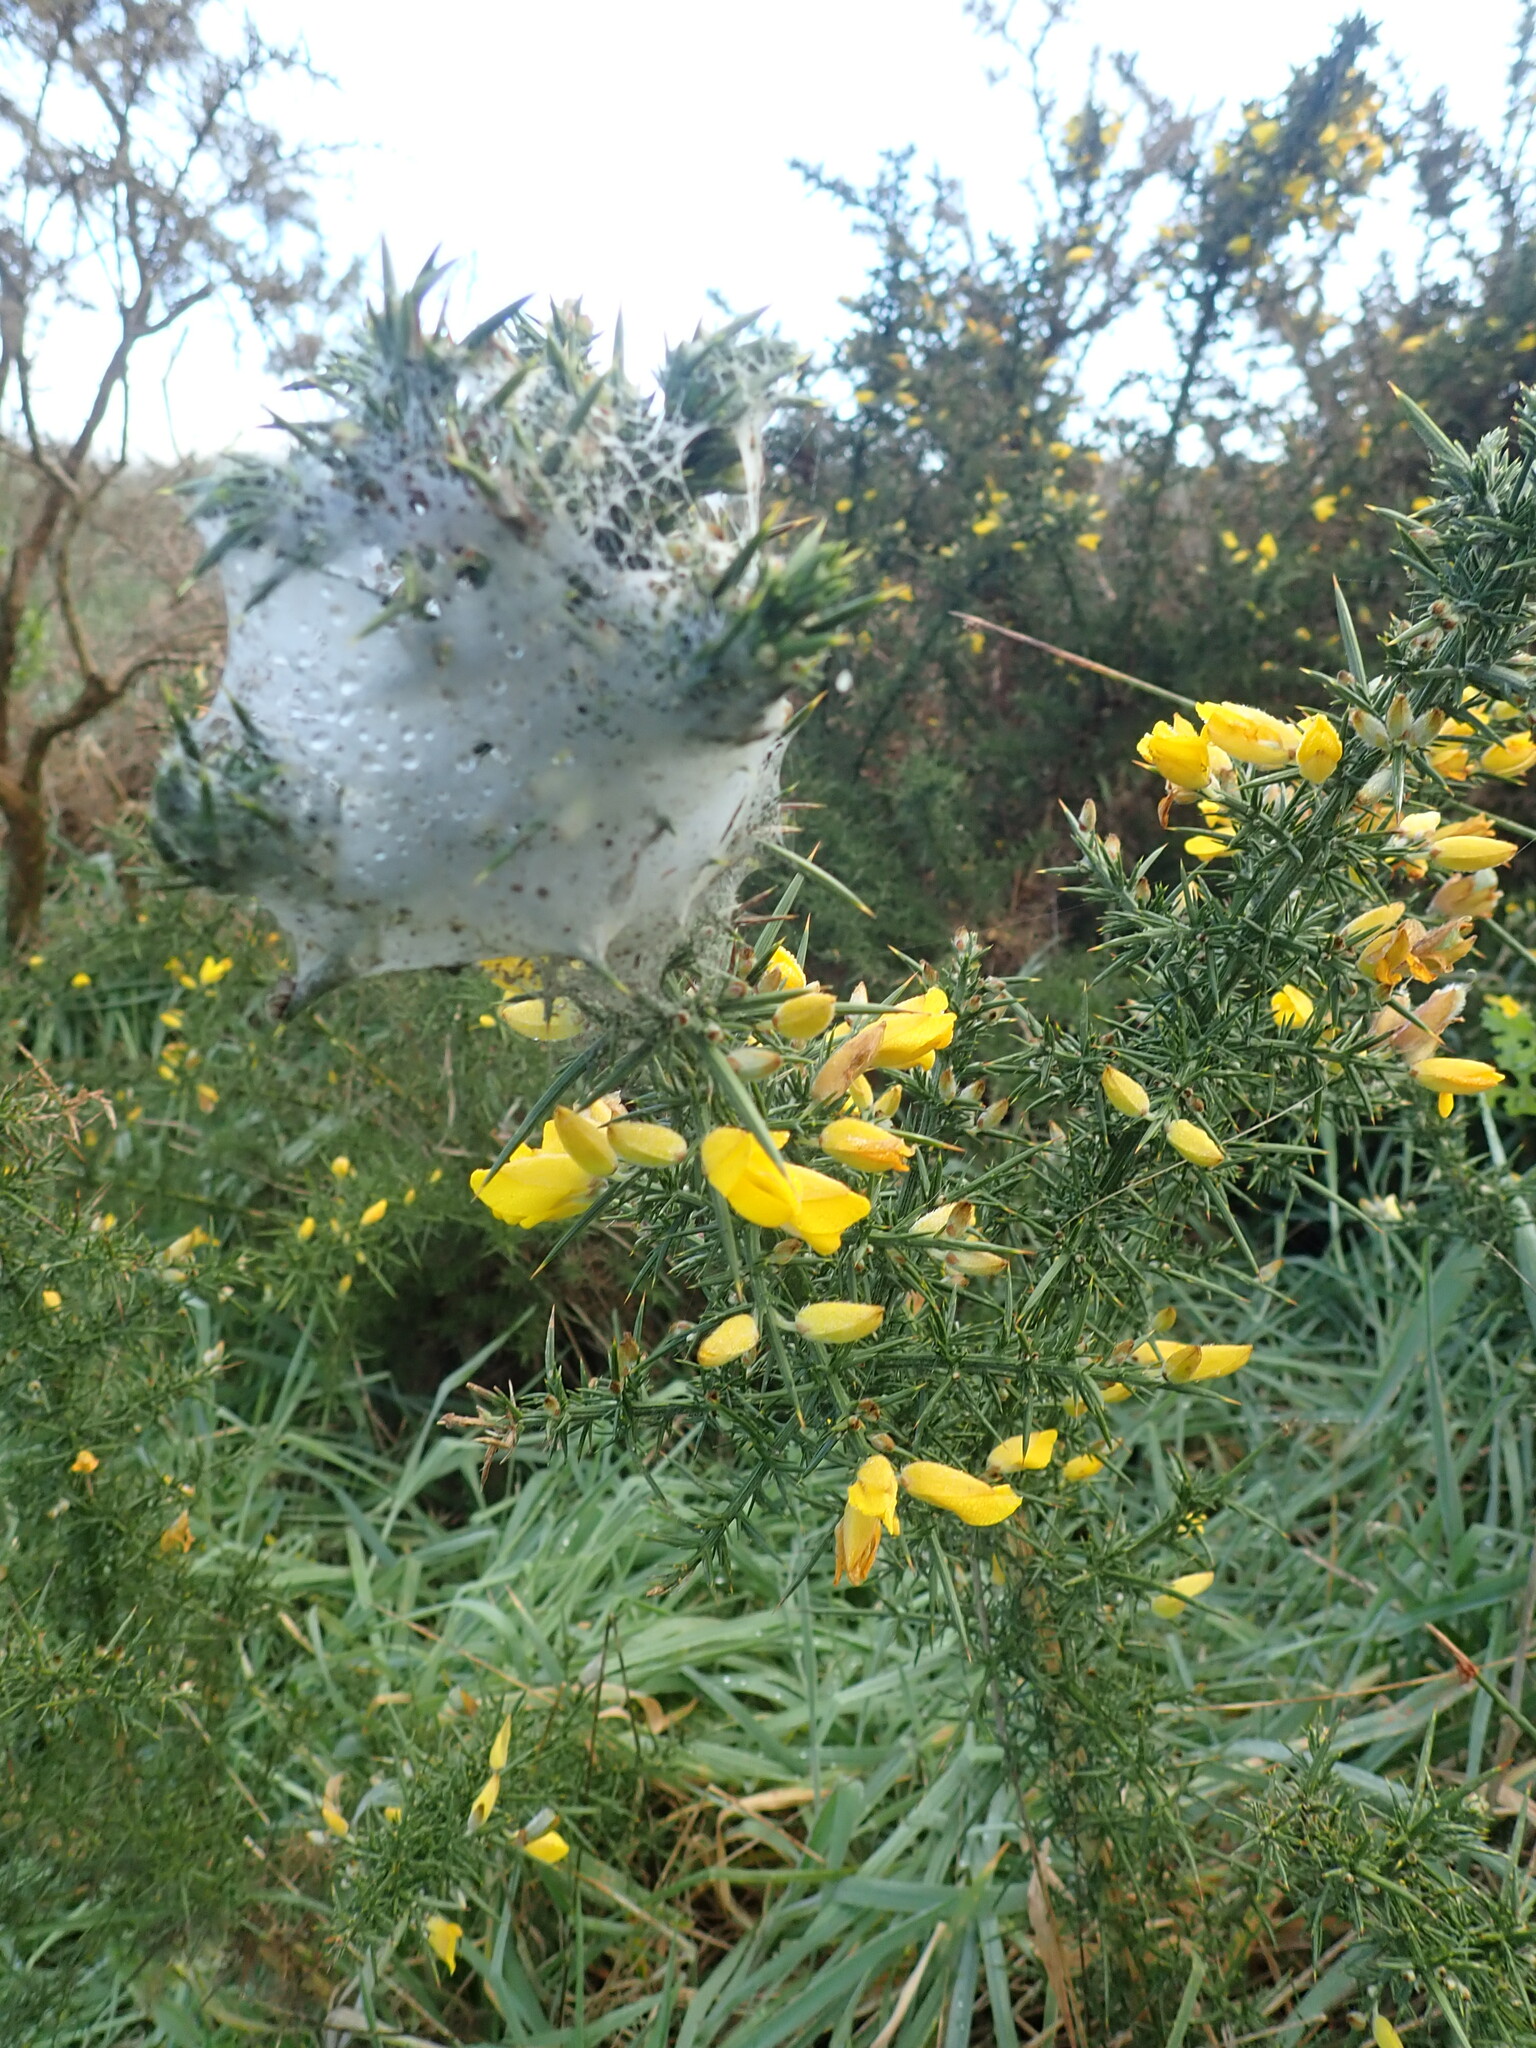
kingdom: Plantae
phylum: Tracheophyta
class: Magnoliopsida
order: Fabales
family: Fabaceae
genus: Ulex
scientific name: Ulex europaeus
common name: Common gorse
